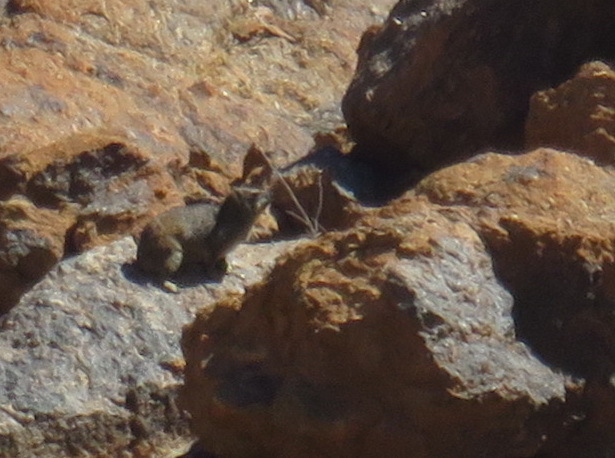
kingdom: Animalia
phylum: Chordata
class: Mammalia
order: Hyracoidea
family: Procaviidae
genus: Procavia
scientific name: Procavia capensis
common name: Rock hyrax
